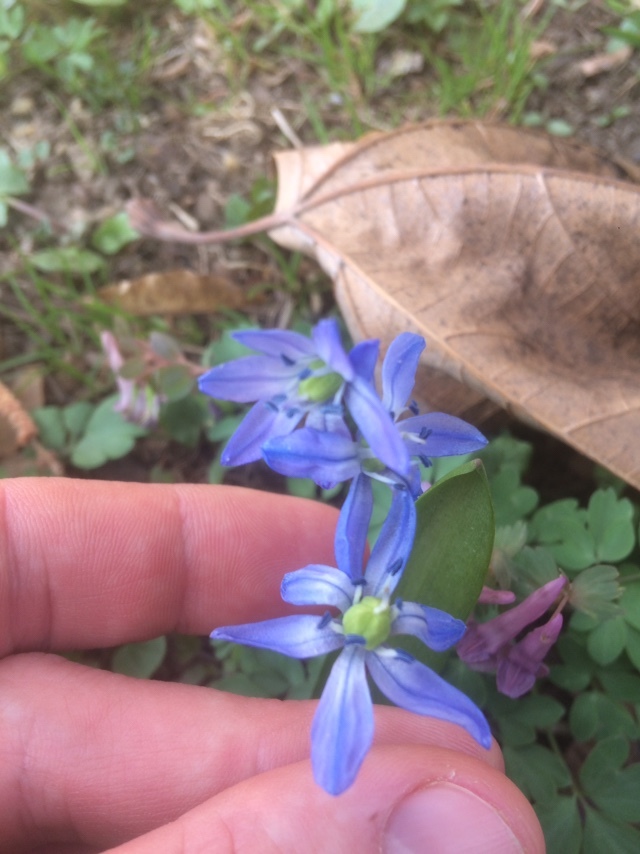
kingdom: Plantae
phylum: Tracheophyta
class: Liliopsida
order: Asparagales
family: Asparagaceae
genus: Scilla
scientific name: Scilla siberica
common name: Siberian squill
